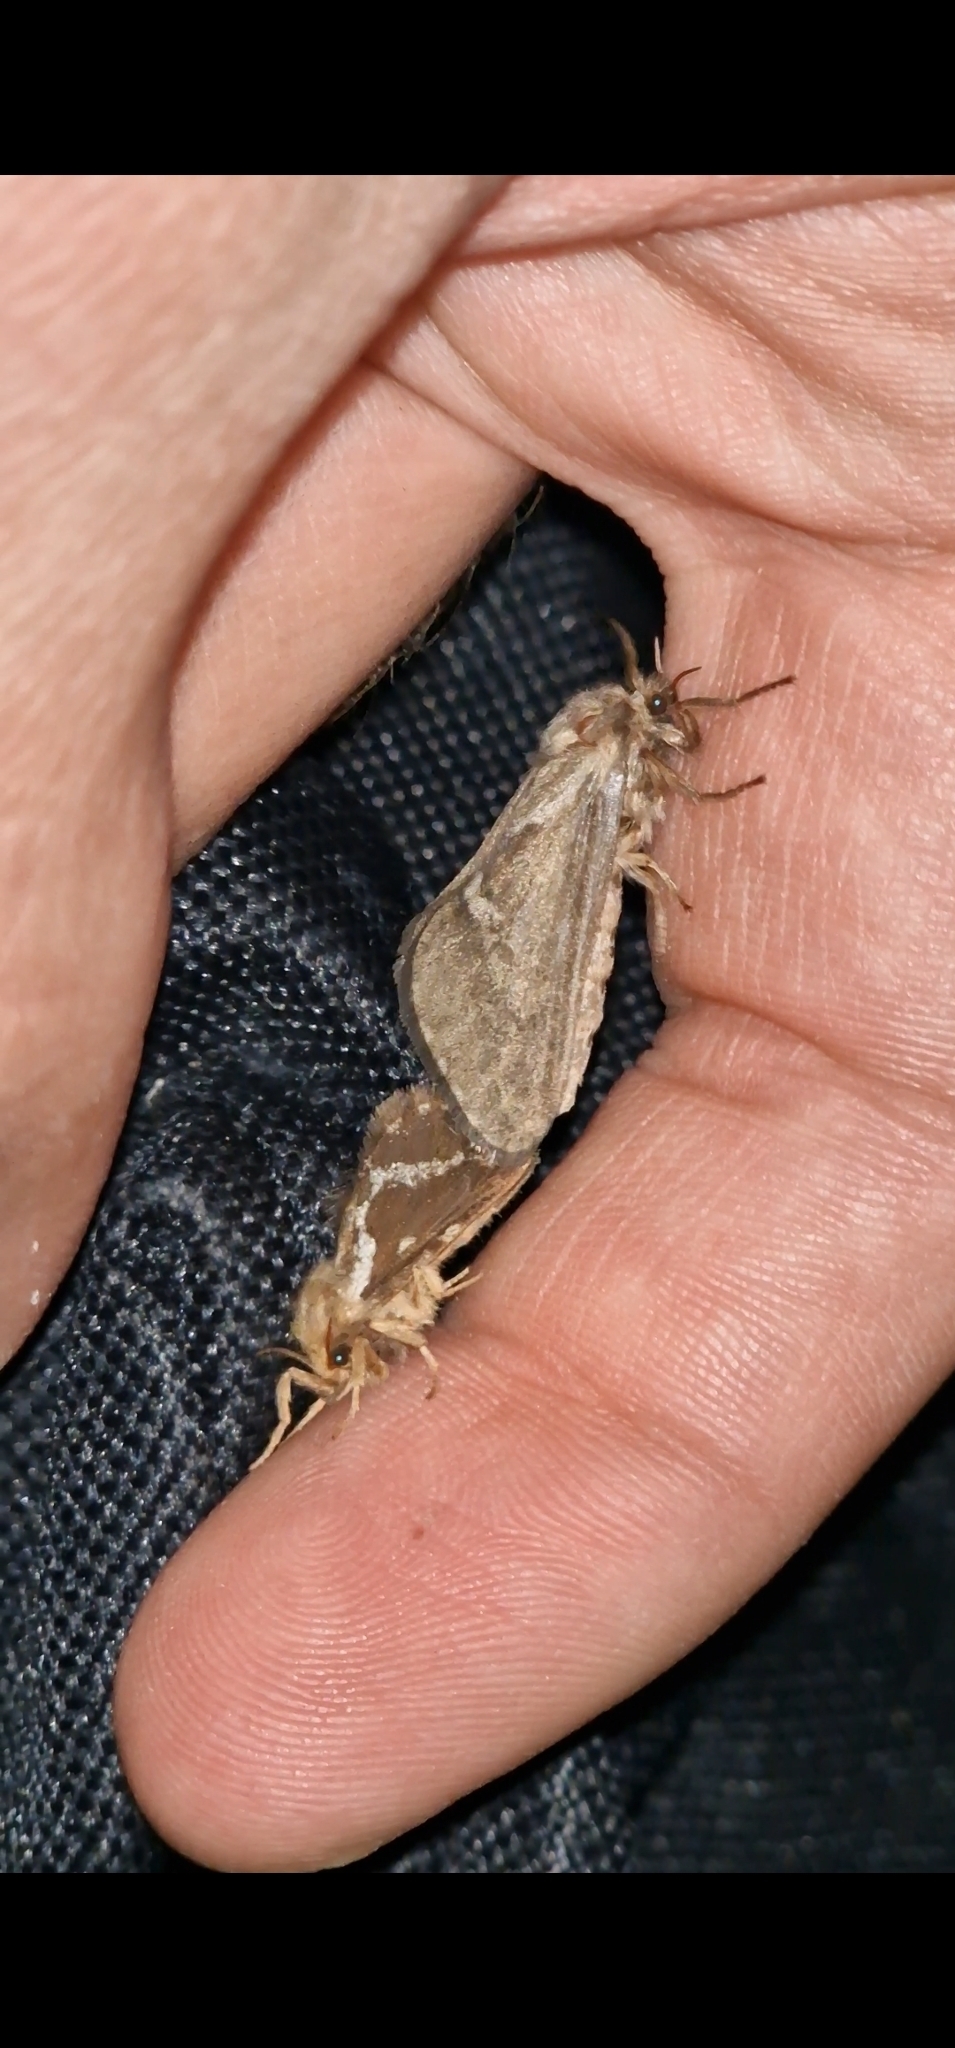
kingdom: Animalia
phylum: Arthropoda
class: Insecta
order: Lepidoptera
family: Hepialidae
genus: Korscheltellus
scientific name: Korscheltellus lupulina
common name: Common swift
